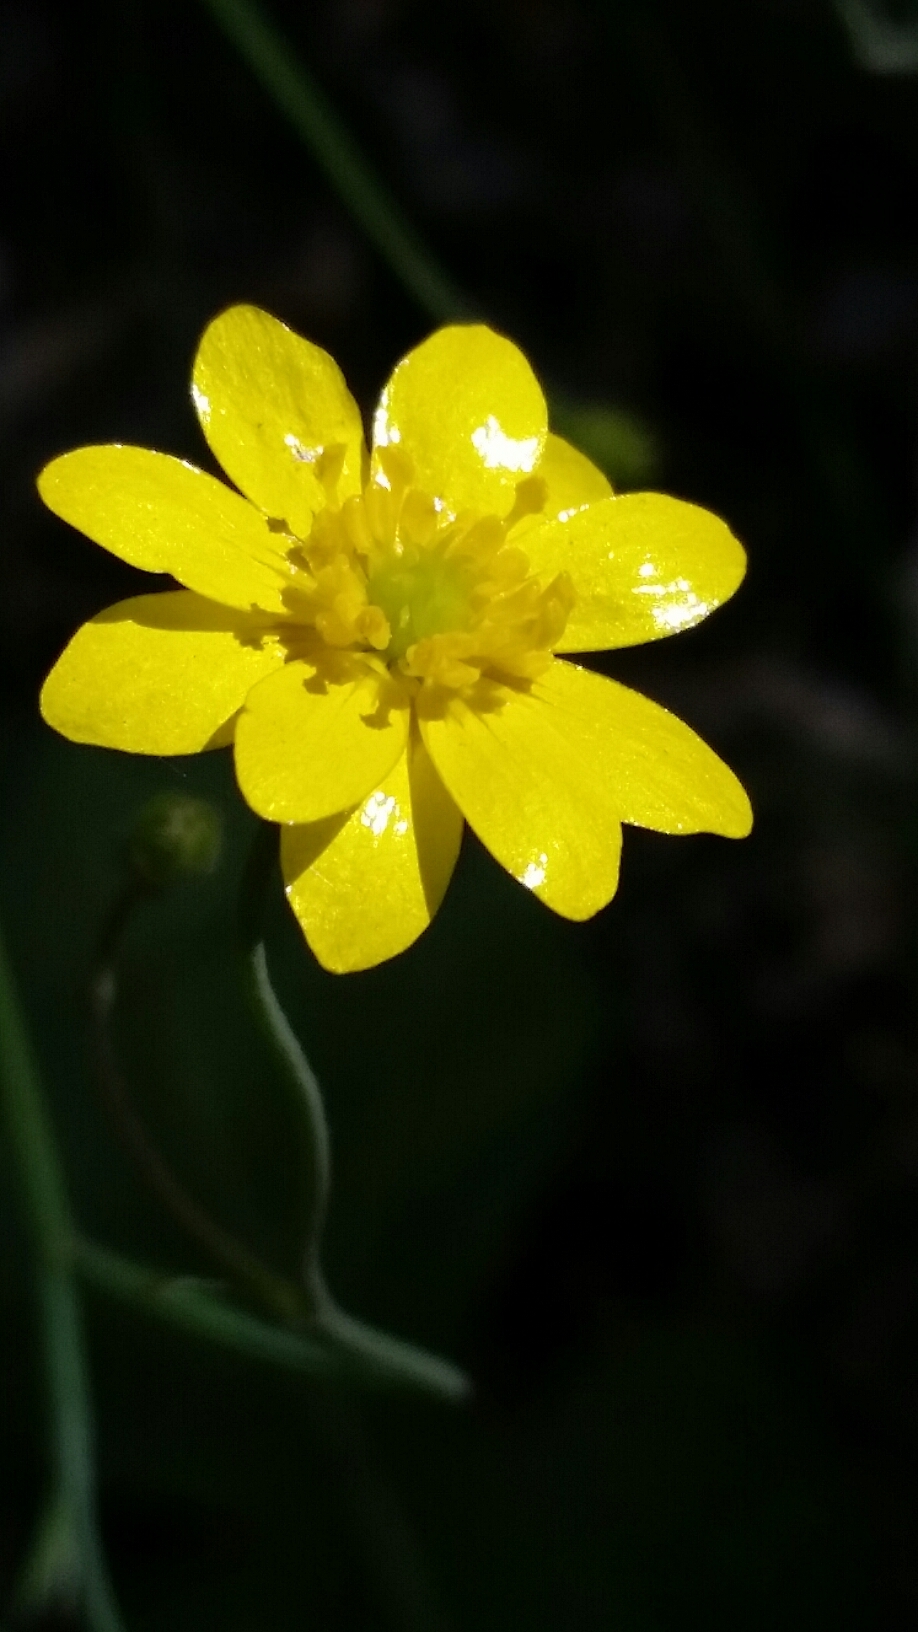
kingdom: Plantae
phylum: Tracheophyta
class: Magnoliopsida
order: Ranunculales
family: Ranunculaceae
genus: Ranunculus
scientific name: Ranunculus californicus
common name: California buttercup
